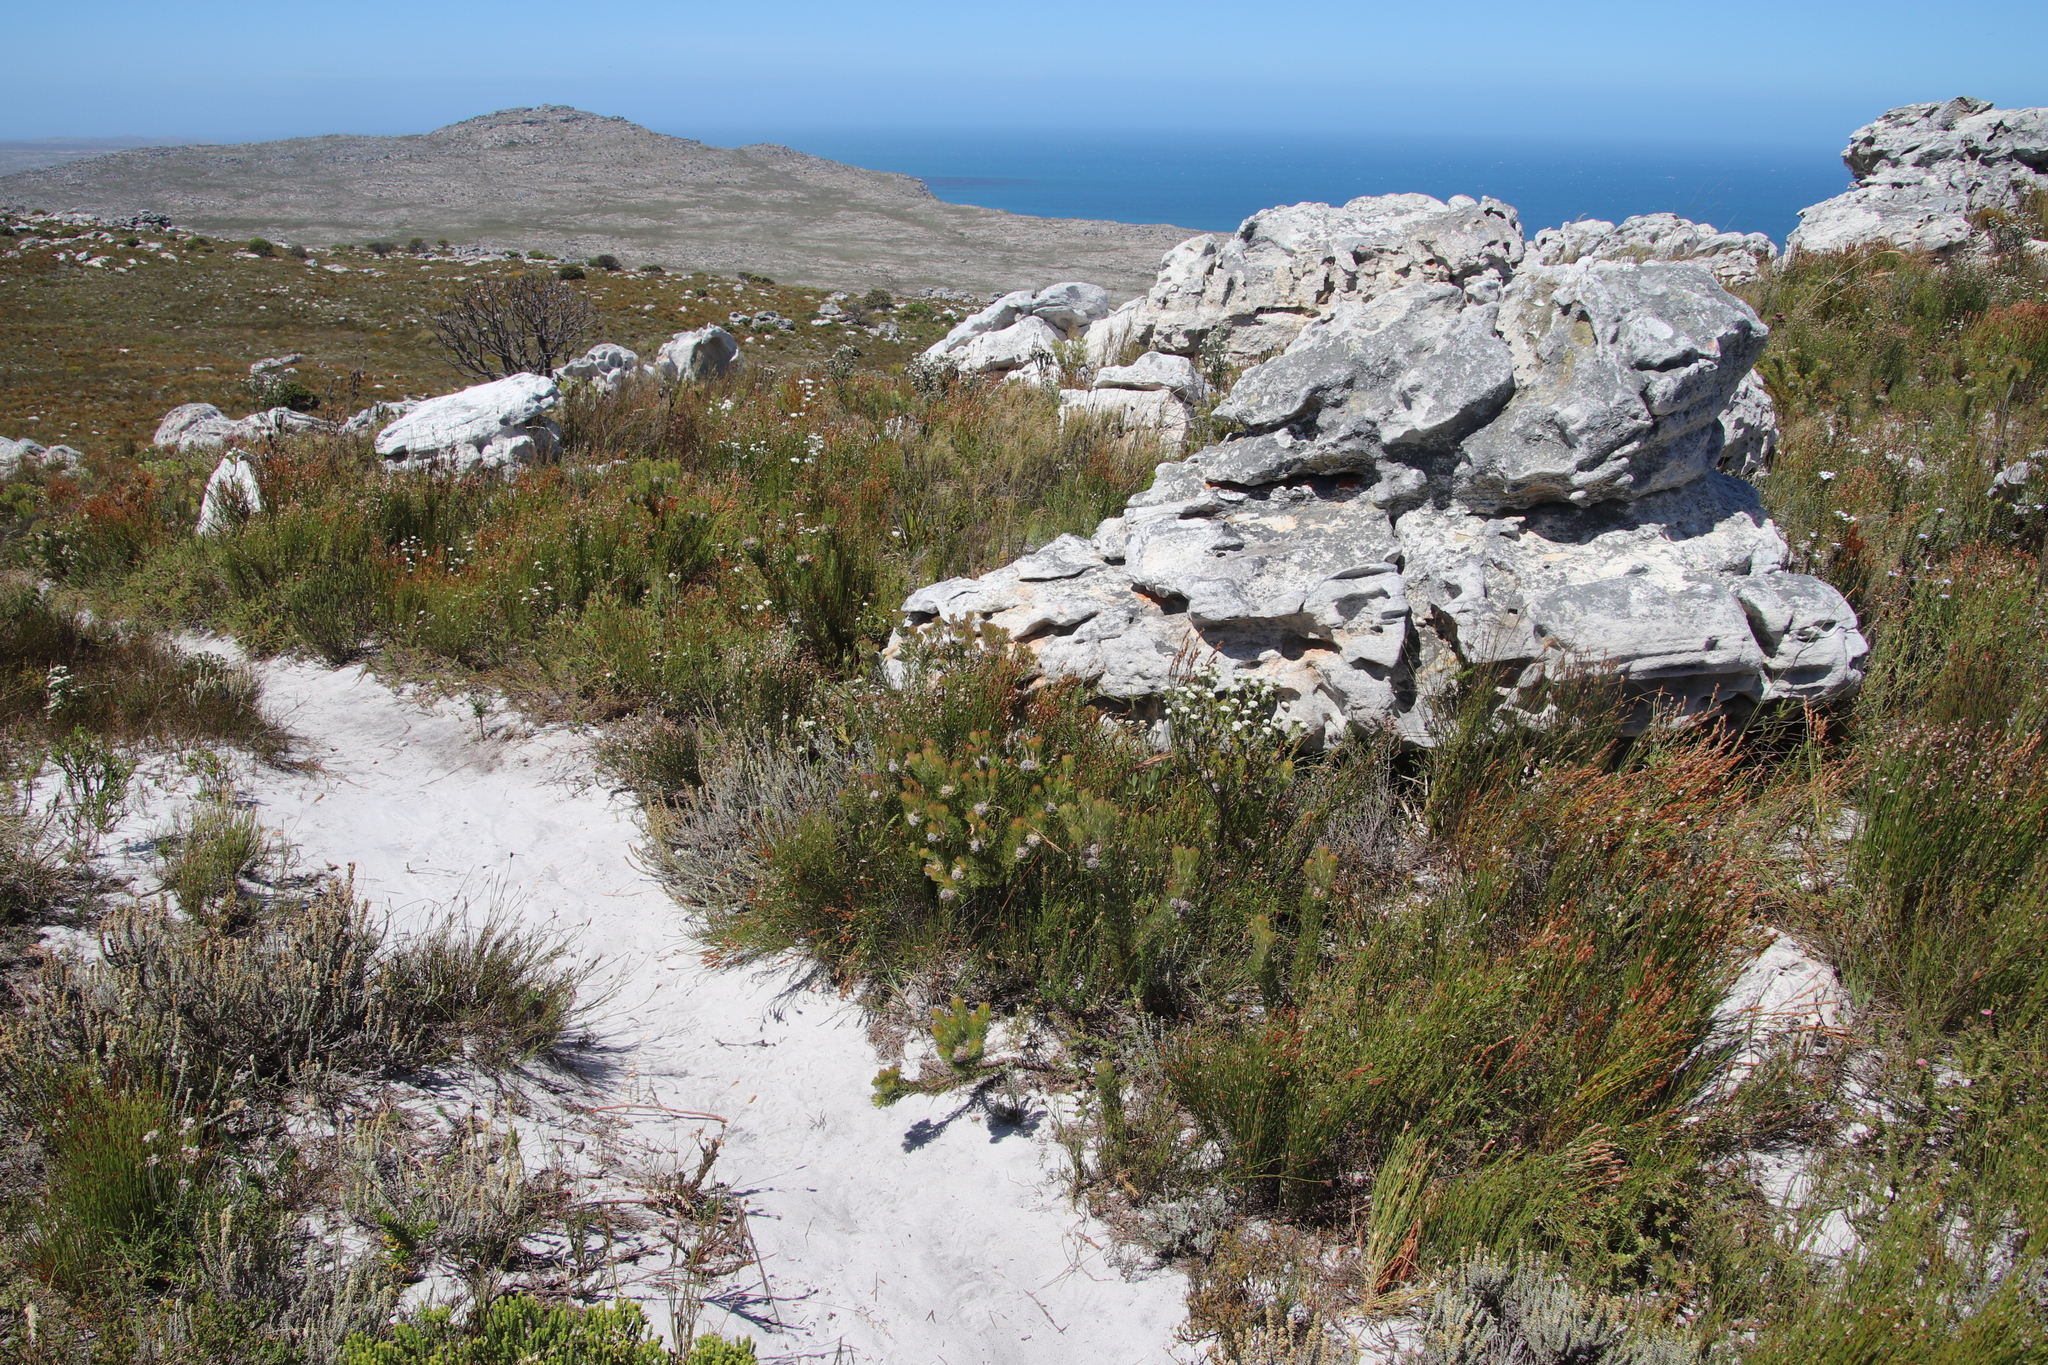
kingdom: Plantae
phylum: Tracheophyta
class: Magnoliopsida
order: Proteales
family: Proteaceae
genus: Serruria
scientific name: Serruria villosa
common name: Golden spiderhead
